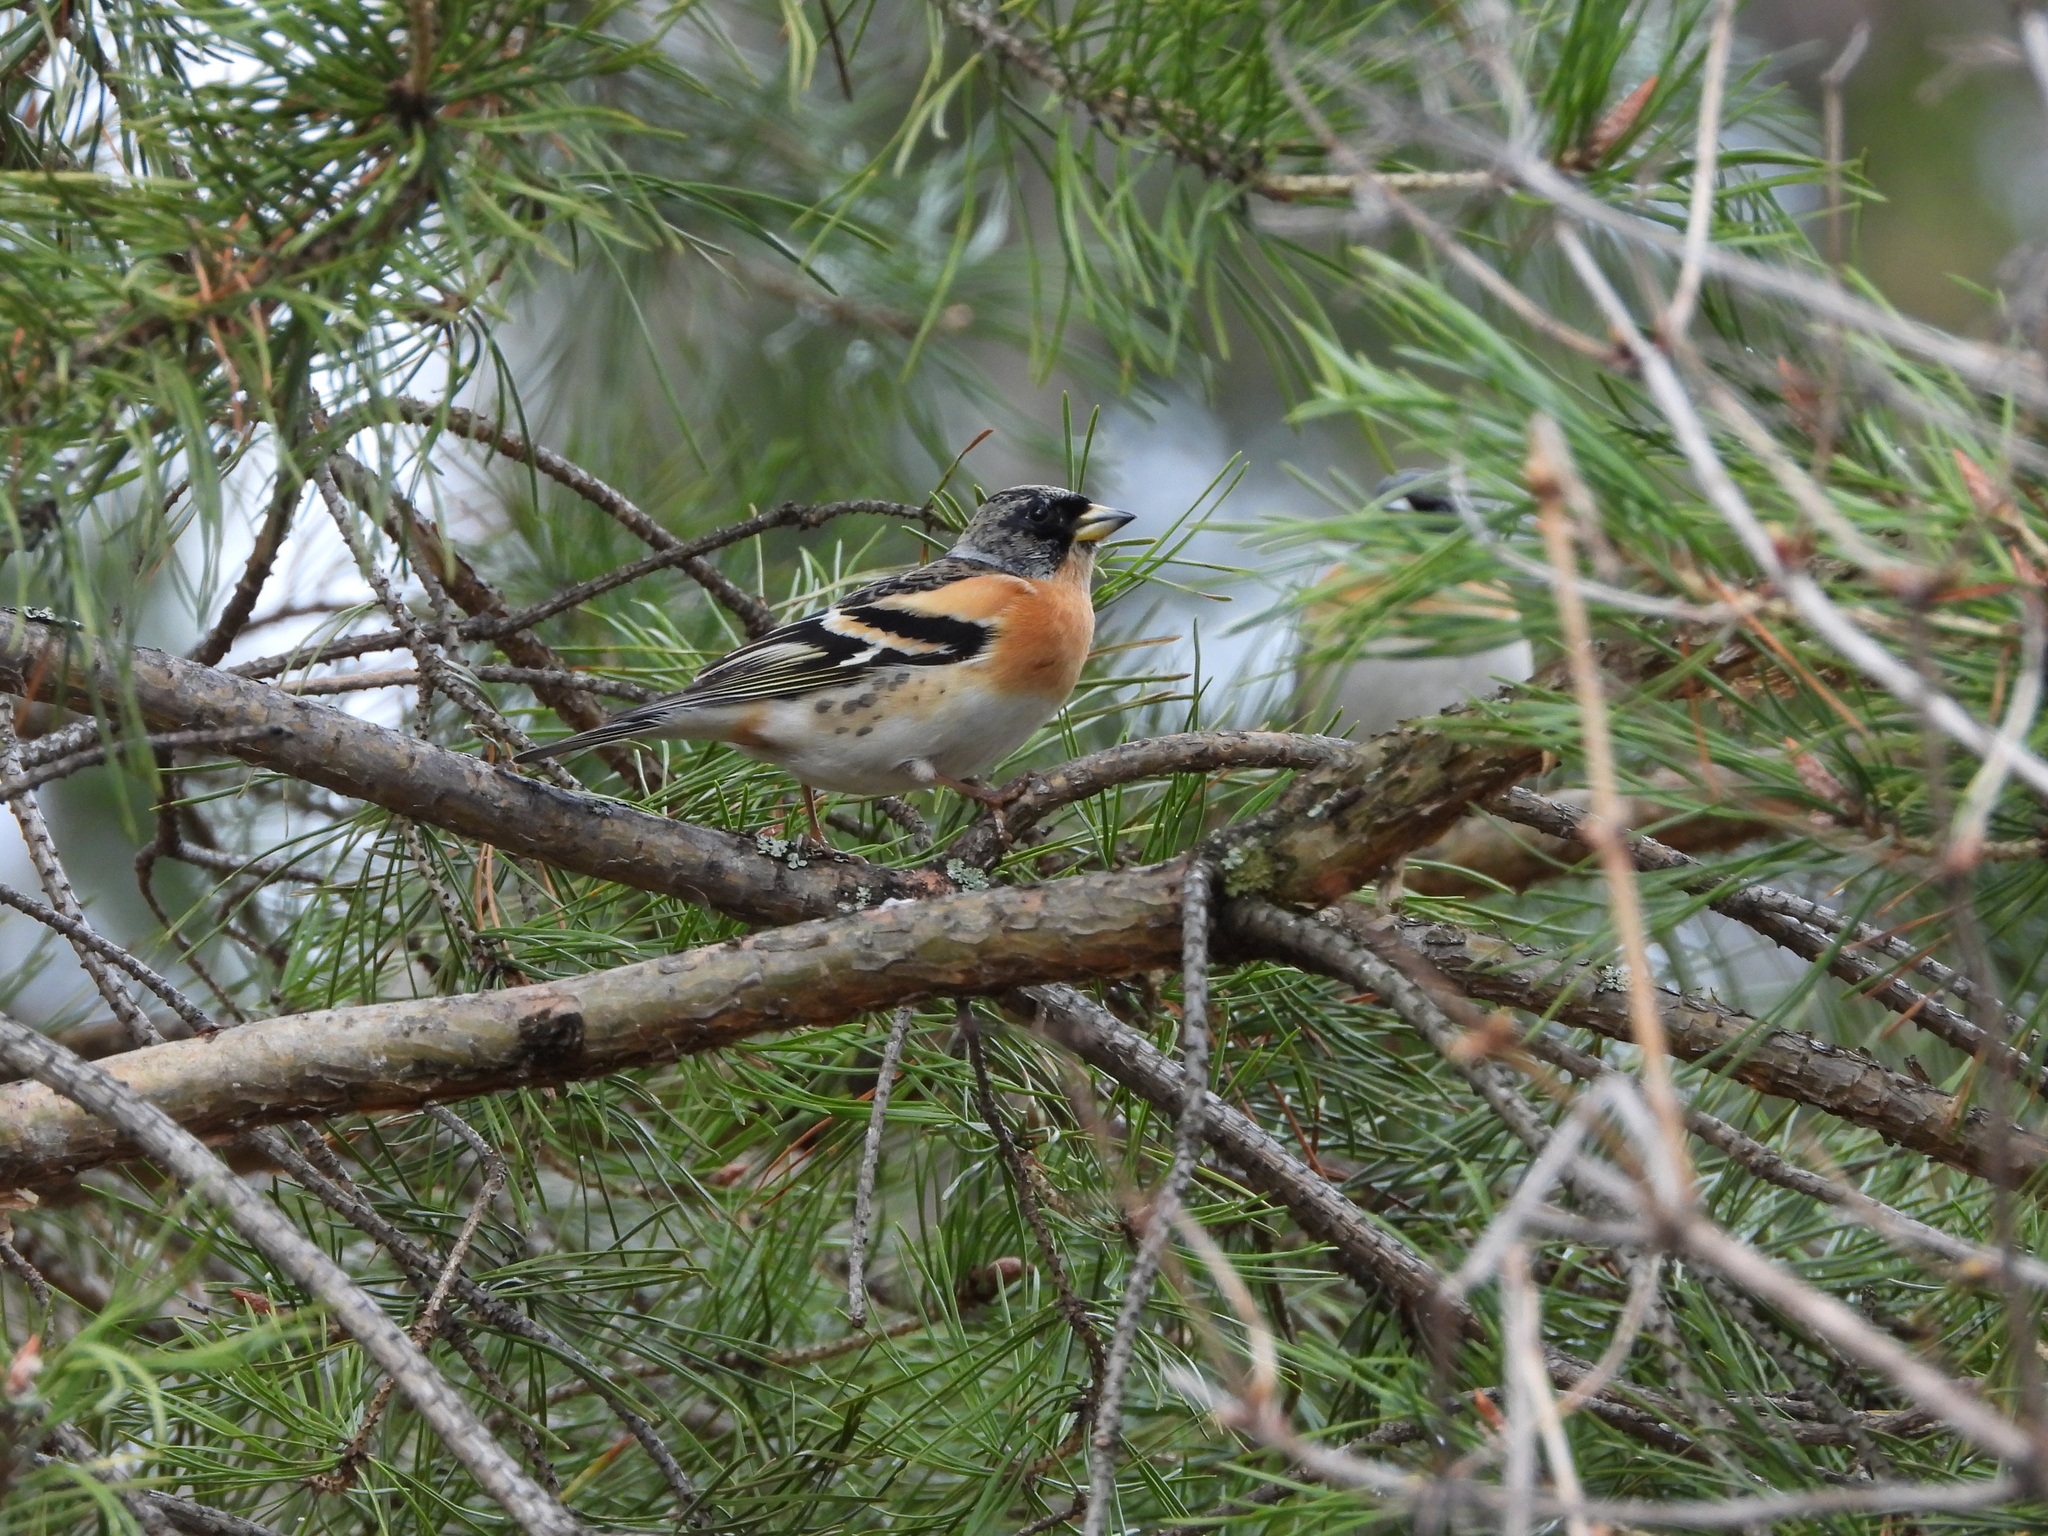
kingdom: Animalia
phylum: Chordata
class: Aves
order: Passeriformes
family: Fringillidae
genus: Fringilla
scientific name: Fringilla montifringilla
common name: Brambling
